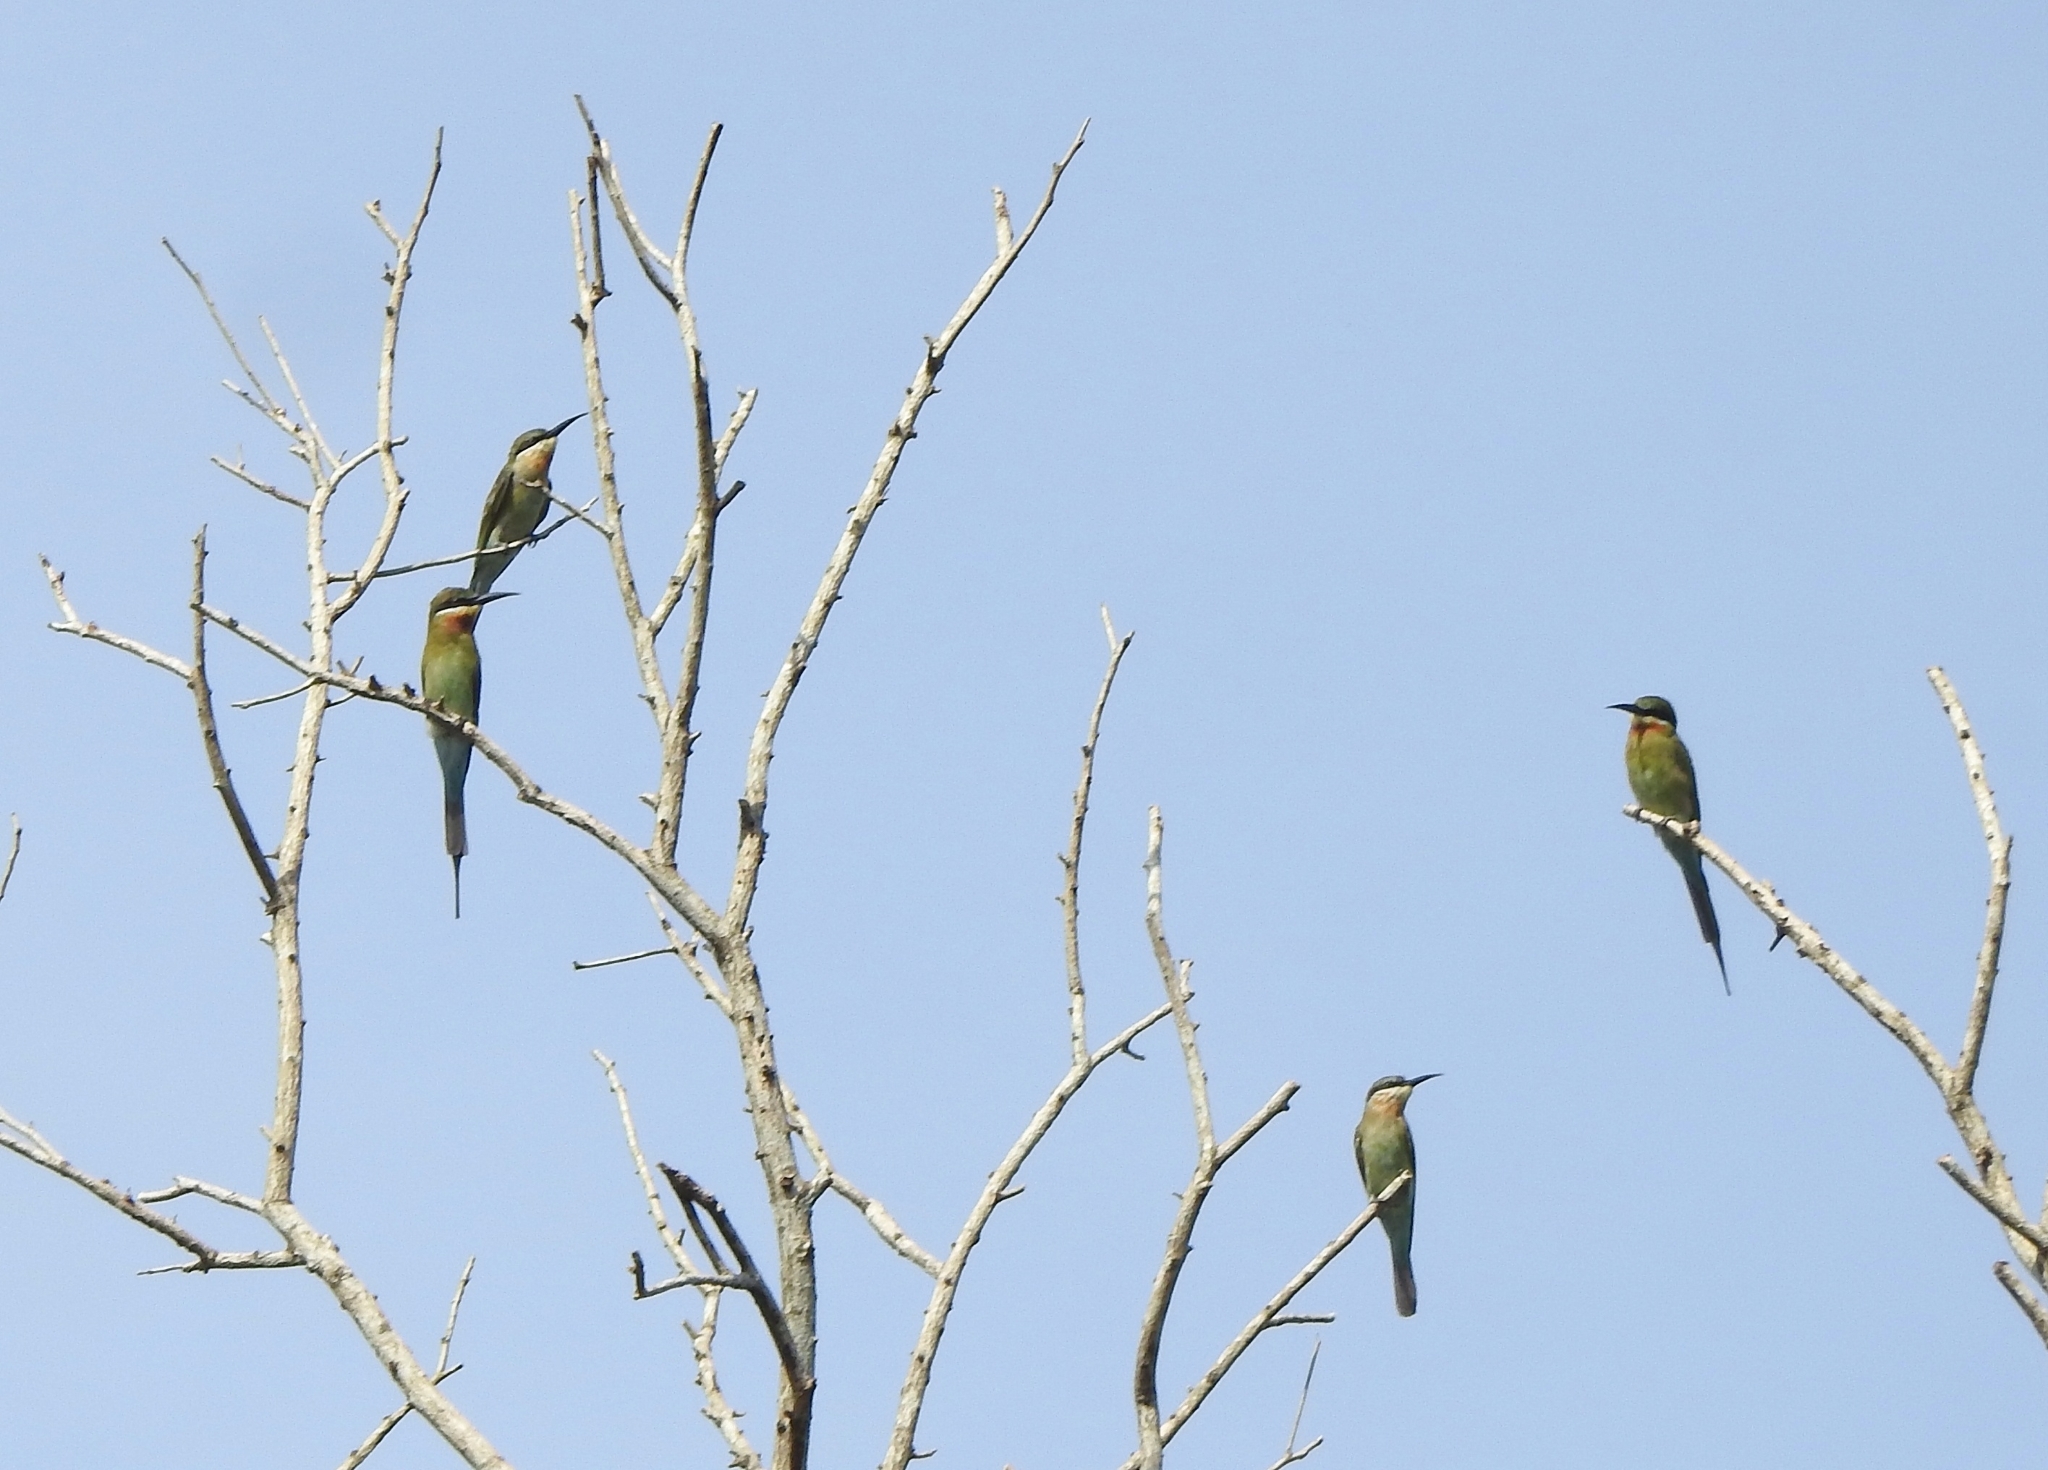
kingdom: Animalia
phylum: Chordata
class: Aves
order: Coraciiformes
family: Meropidae
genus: Merops
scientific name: Merops philippinus
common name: Blue-tailed bee-eater
